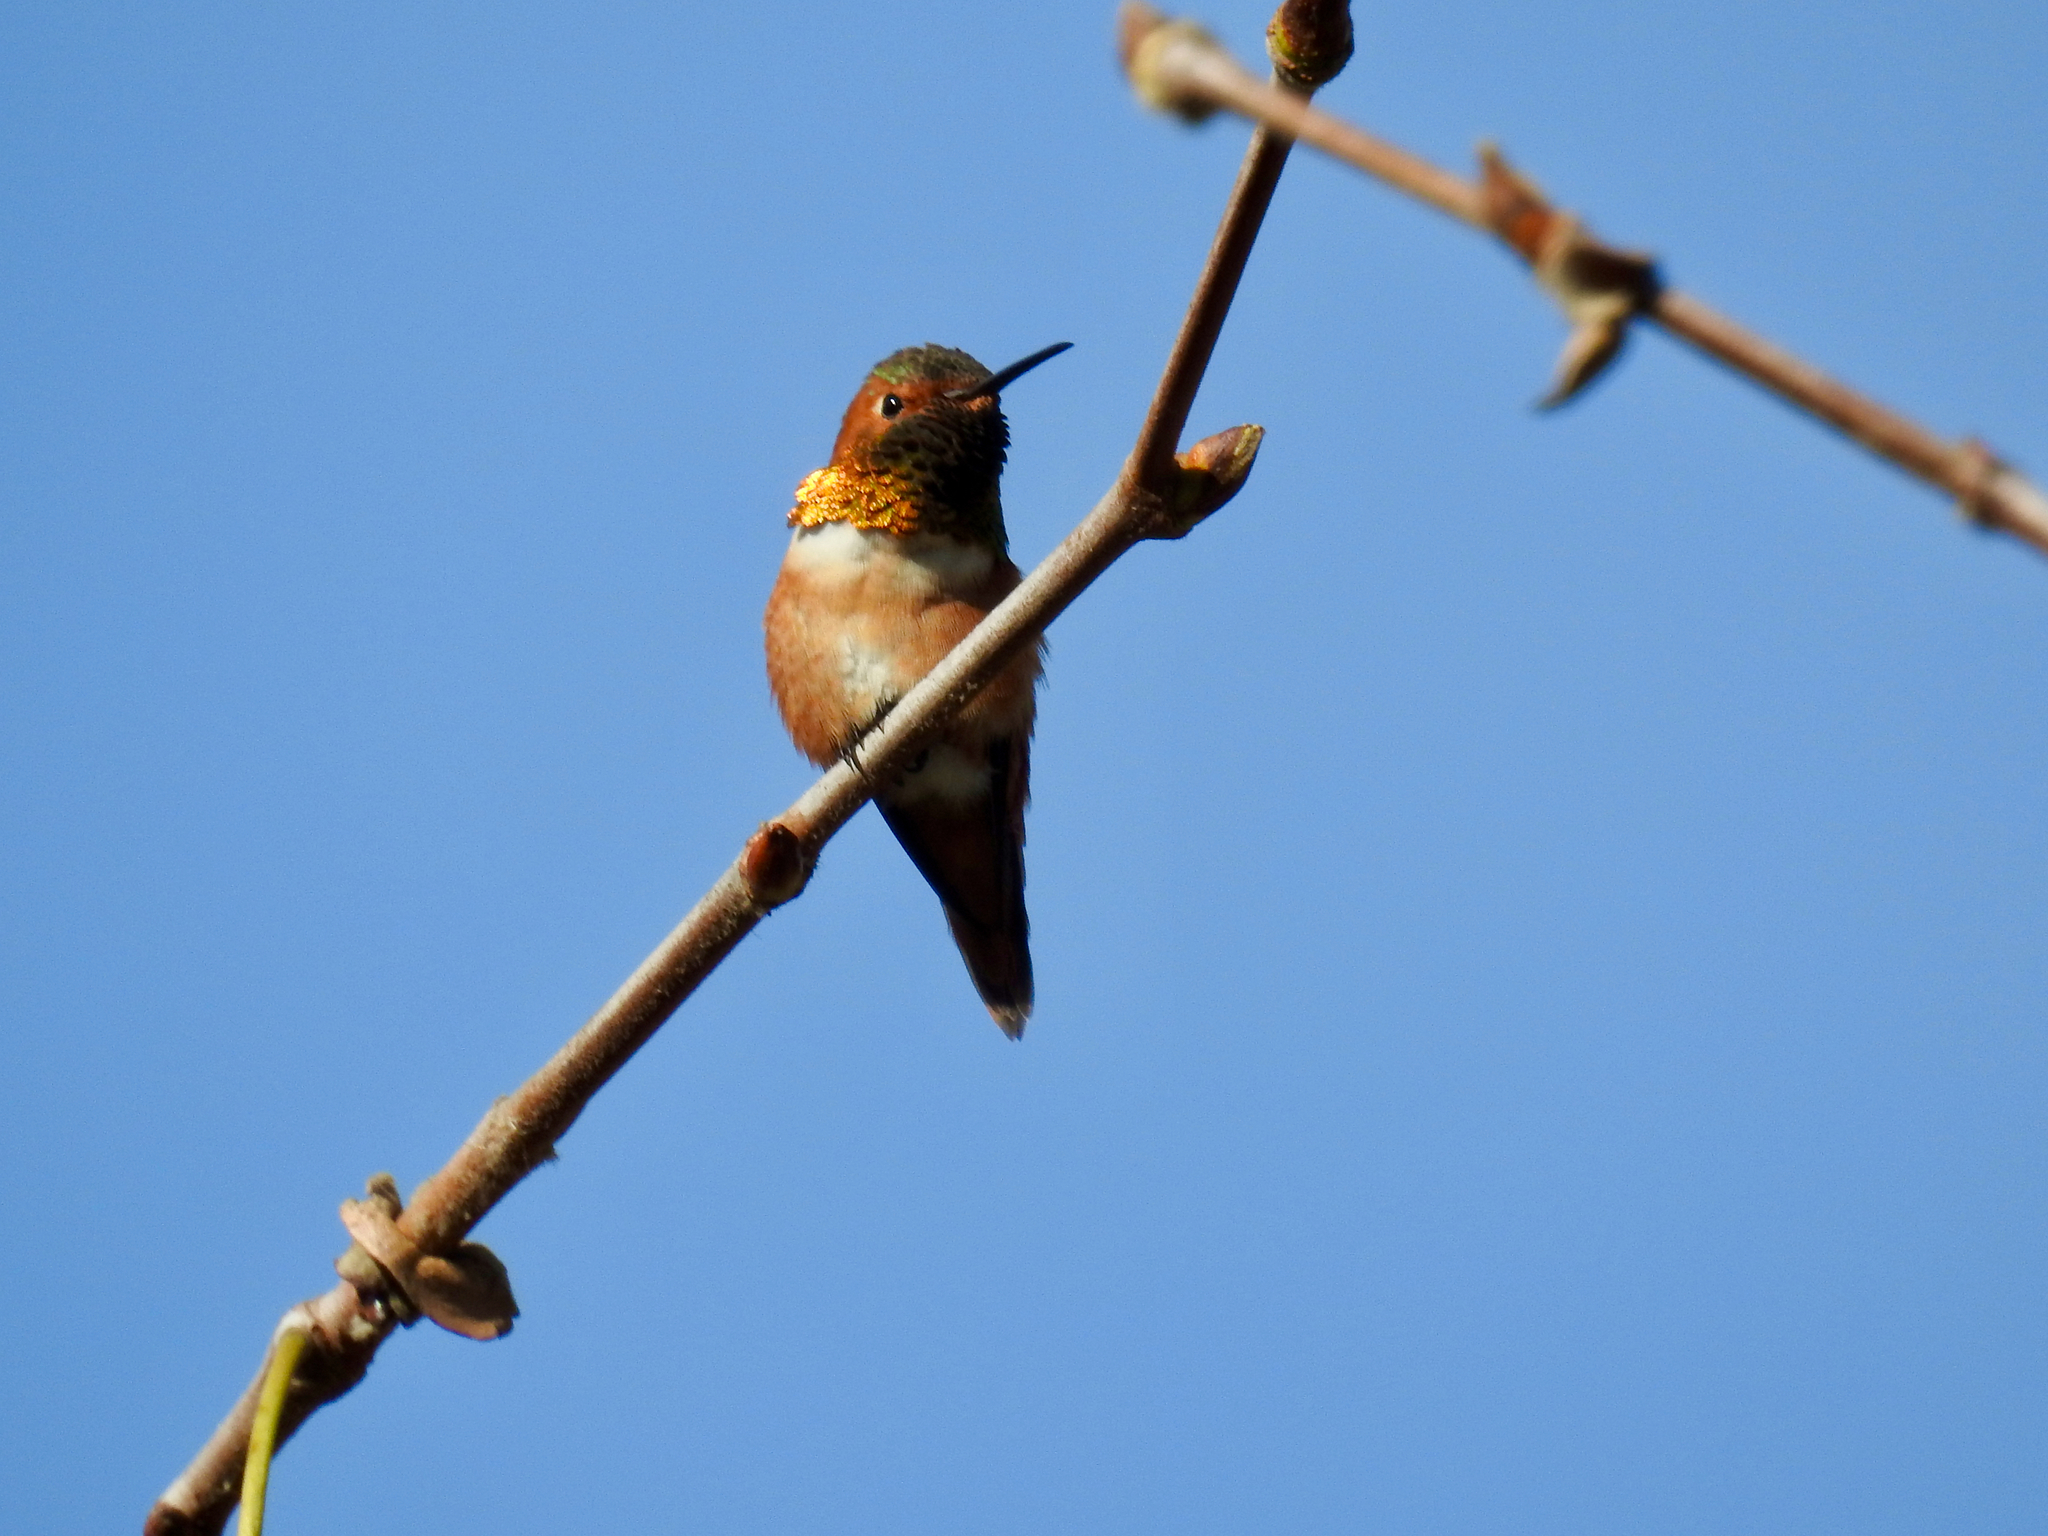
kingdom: Animalia
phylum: Chordata
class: Aves
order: Apodiformes
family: Trochilidae
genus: Selasphorus
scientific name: Selasphorus sasin
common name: Allen's hummingbird
